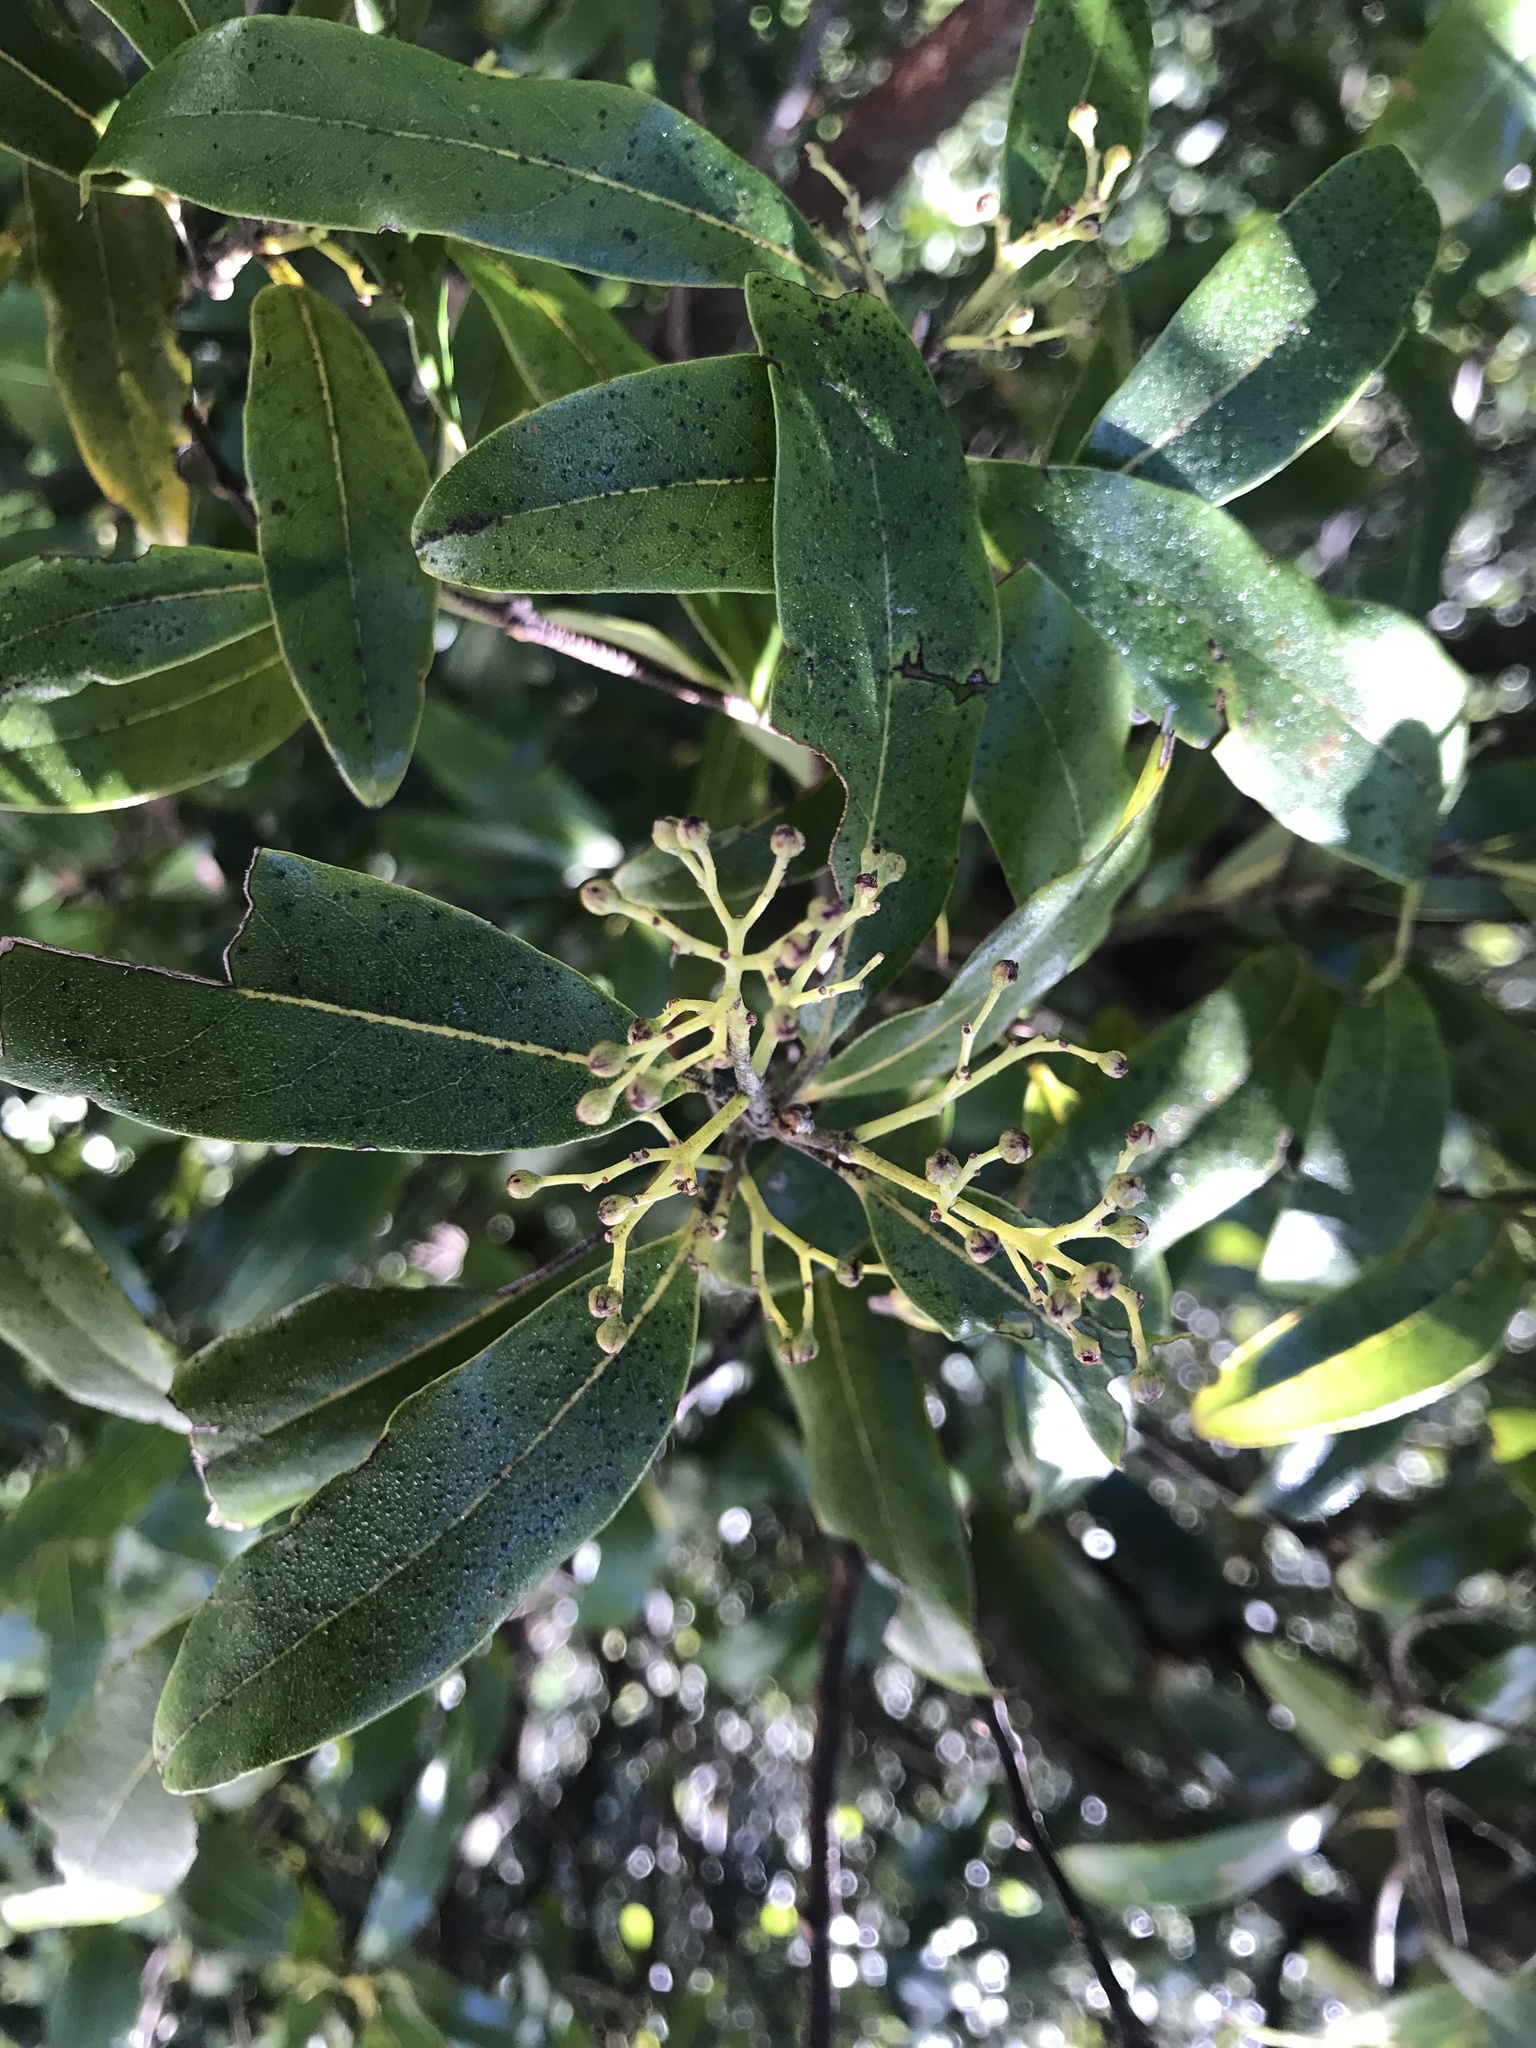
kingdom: Plantae
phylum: Tracheophyta
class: Magnoliopsida
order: Laurales
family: Lauraceae
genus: Beilschmiedia
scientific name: Beilschmiedia tawa
